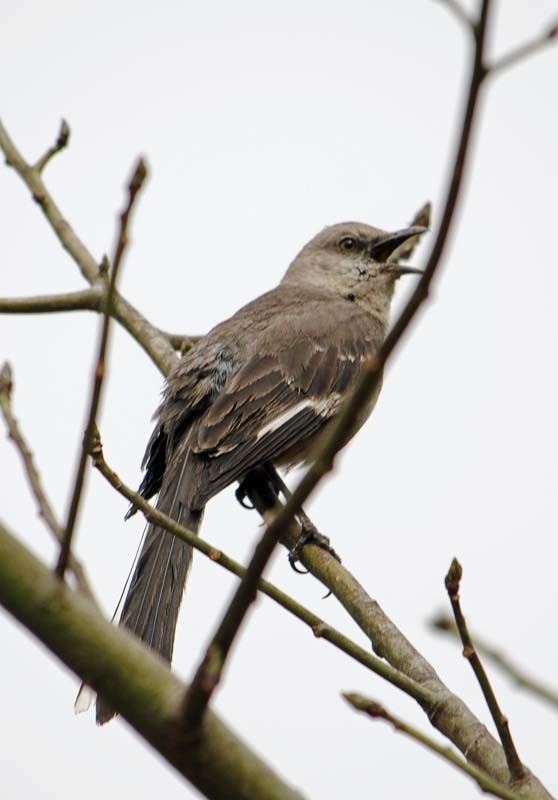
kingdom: Animalia
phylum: Chordata
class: Aves
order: Passeriformes
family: Mimidae
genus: Mimus
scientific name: Mimus polyglottos
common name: Northern mockingbird
